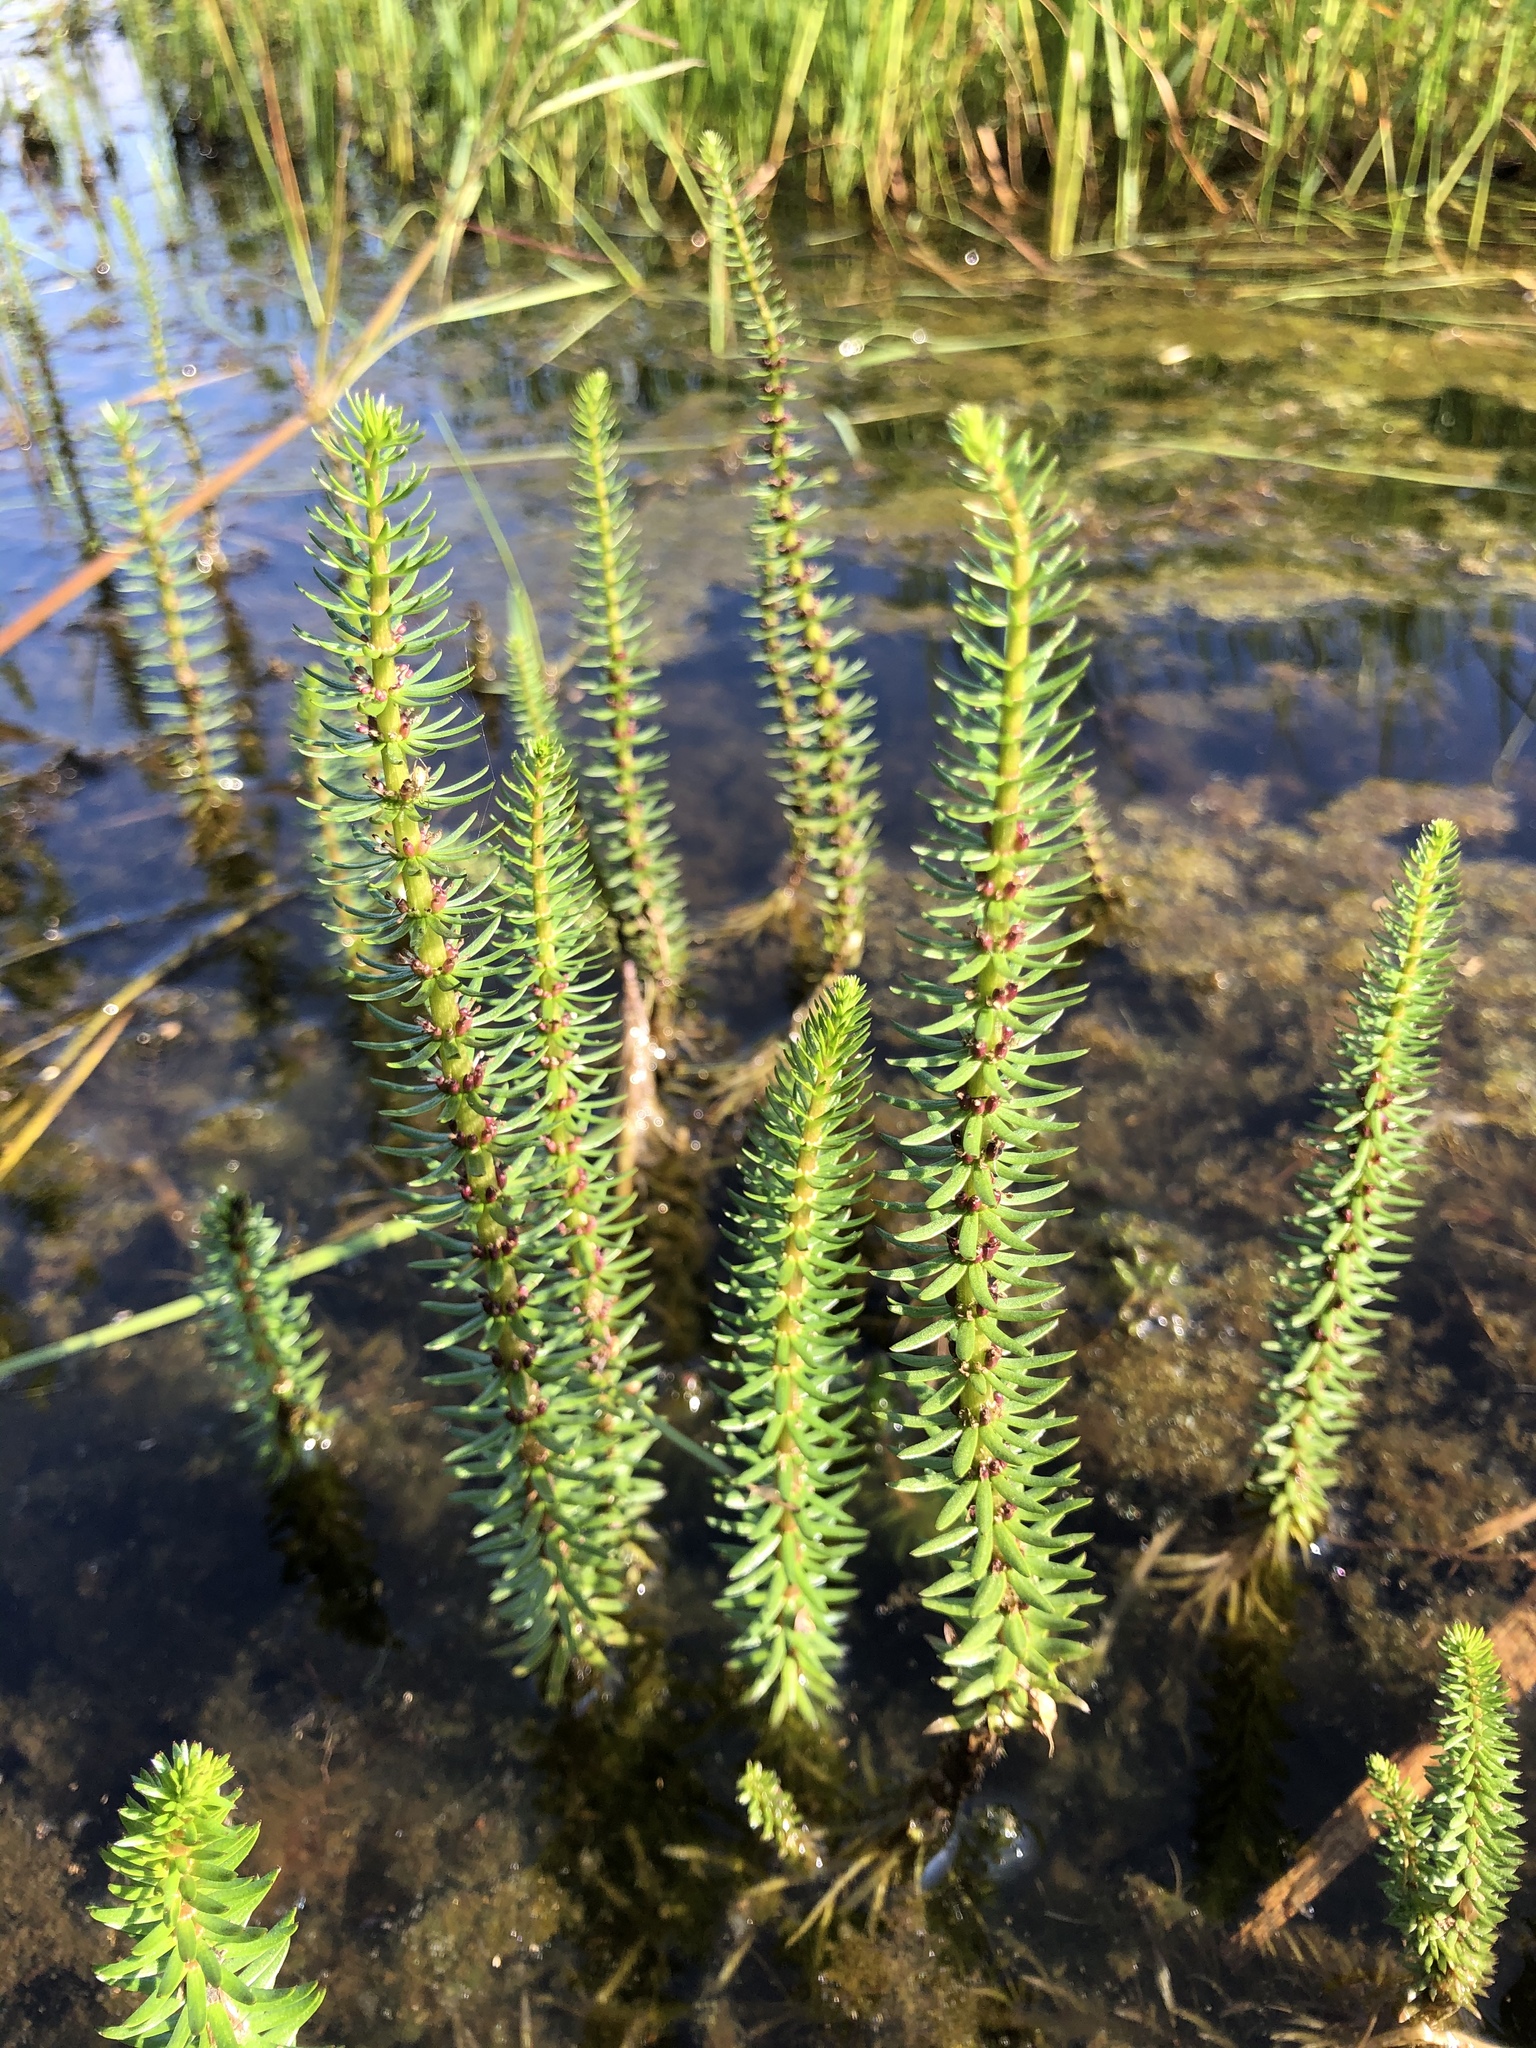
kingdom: Plantae
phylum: Tracheophyta
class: Magnoliopsida
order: Lamiales
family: Plantaginaceae
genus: Hippuris
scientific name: Hippuris vulgaris
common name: Mare's-tail
